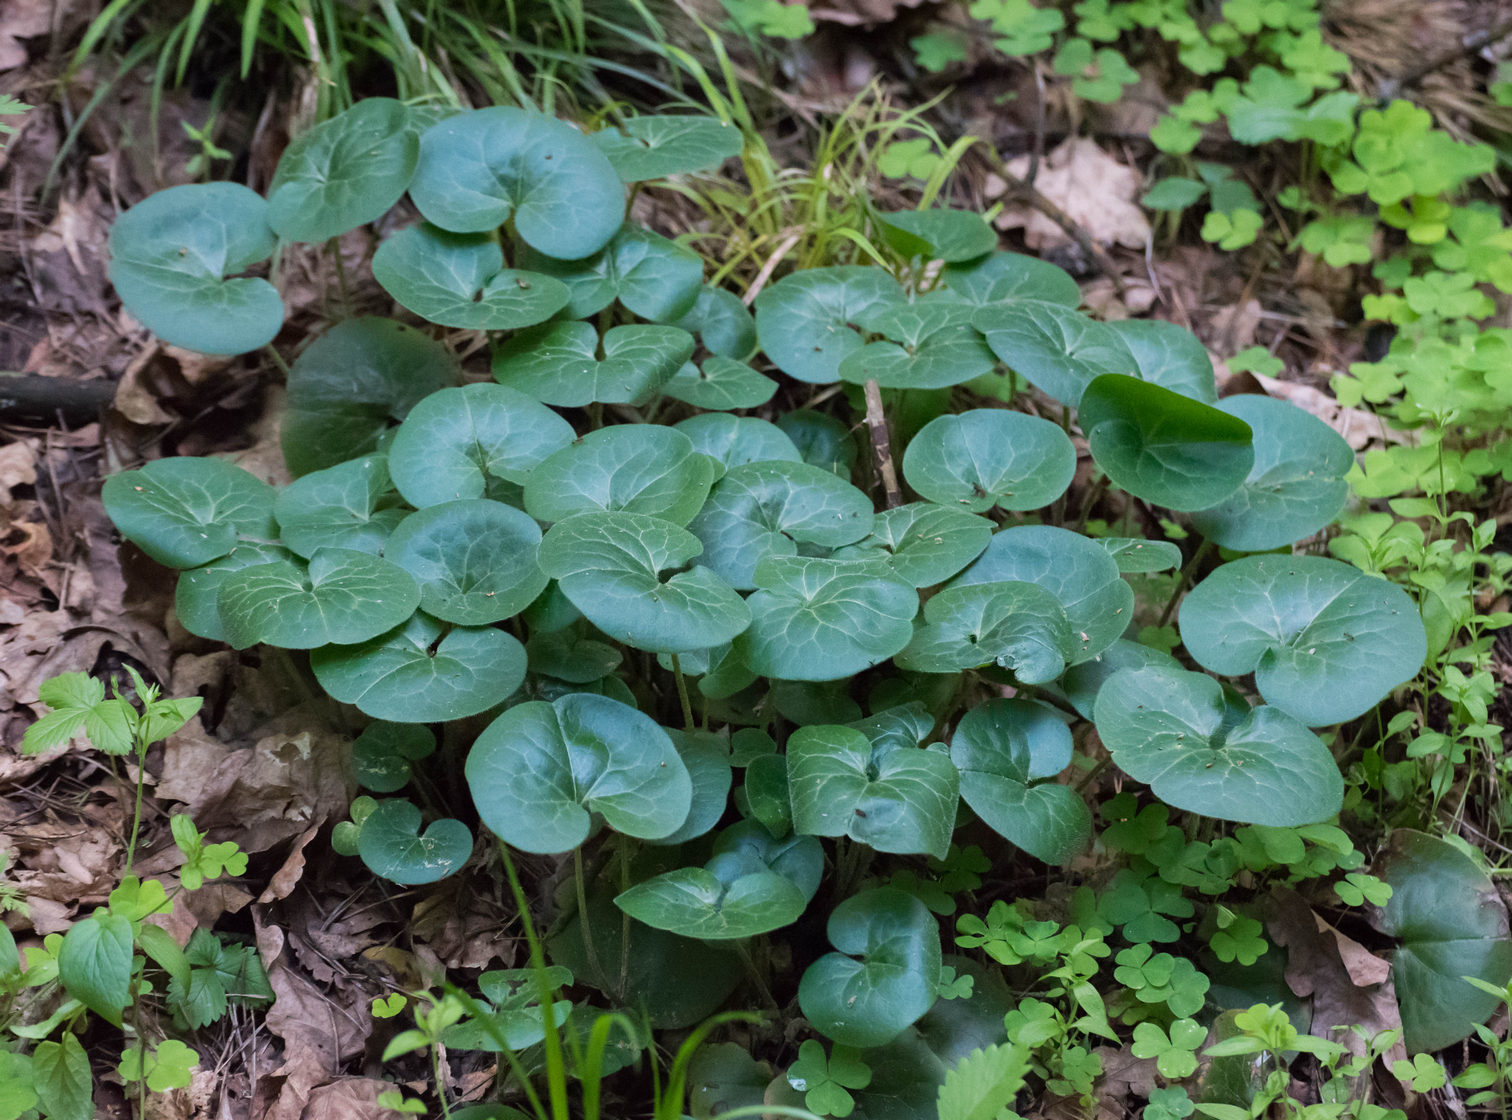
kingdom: Plantae
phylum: Tracheophyta
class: Magnoliopsida
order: Piperales
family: Aristolochiaceae
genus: Asarum
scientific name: Asarum europaeum
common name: Asarabacca
